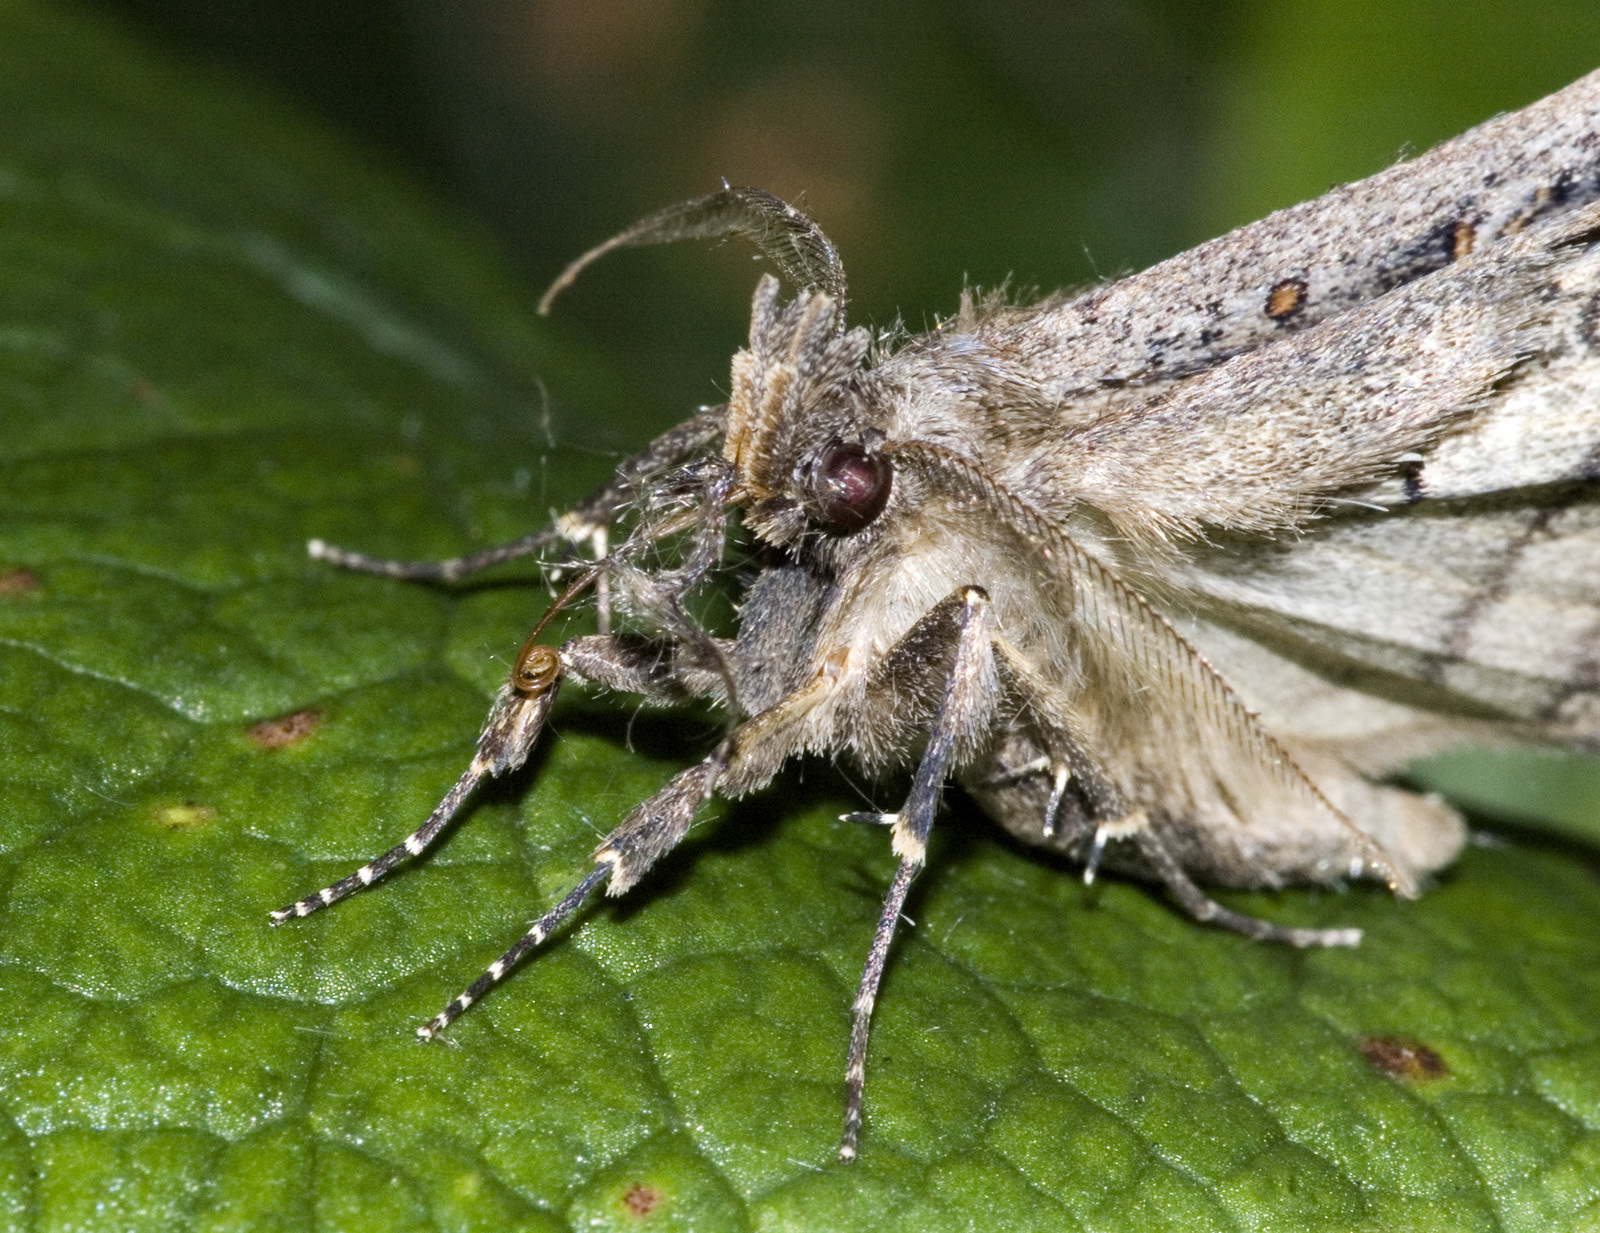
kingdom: Animalia
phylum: Arthropoda
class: Insecta
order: Lepidoptera
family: Erebidae
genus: Rhapsa
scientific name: Rhapsa scotosialis
